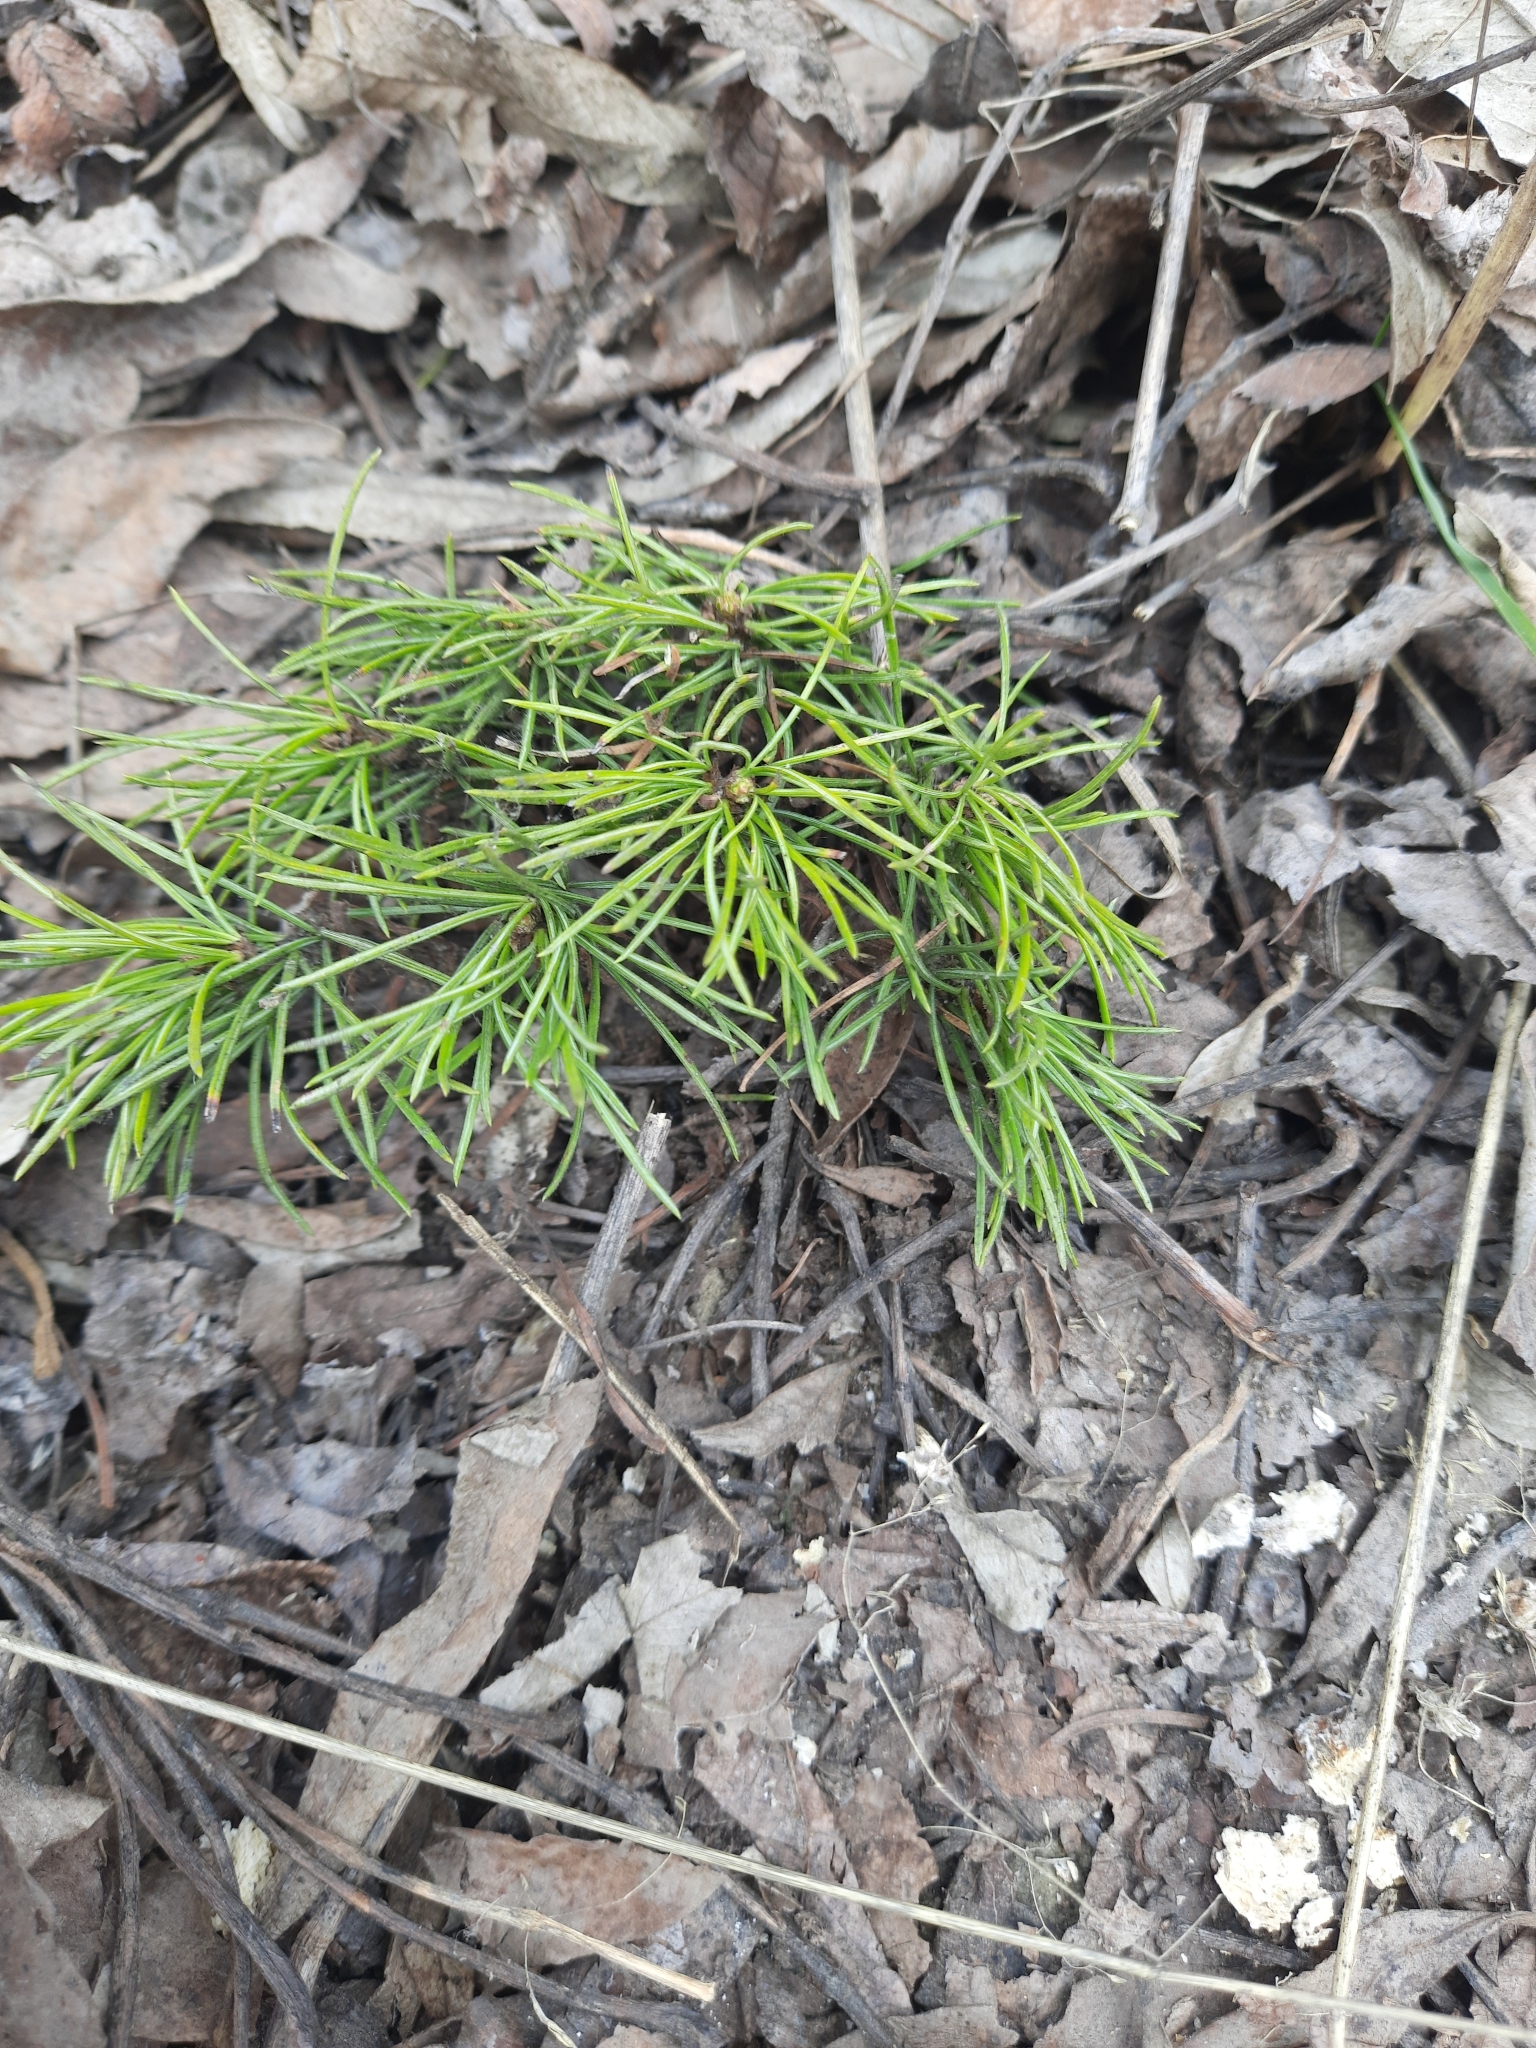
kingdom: Plantae
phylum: Tracheophyta
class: Pinopsida
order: Pinales
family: Pinaceae
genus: Pinus
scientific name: Pinus sibirica
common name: Siberian pine
